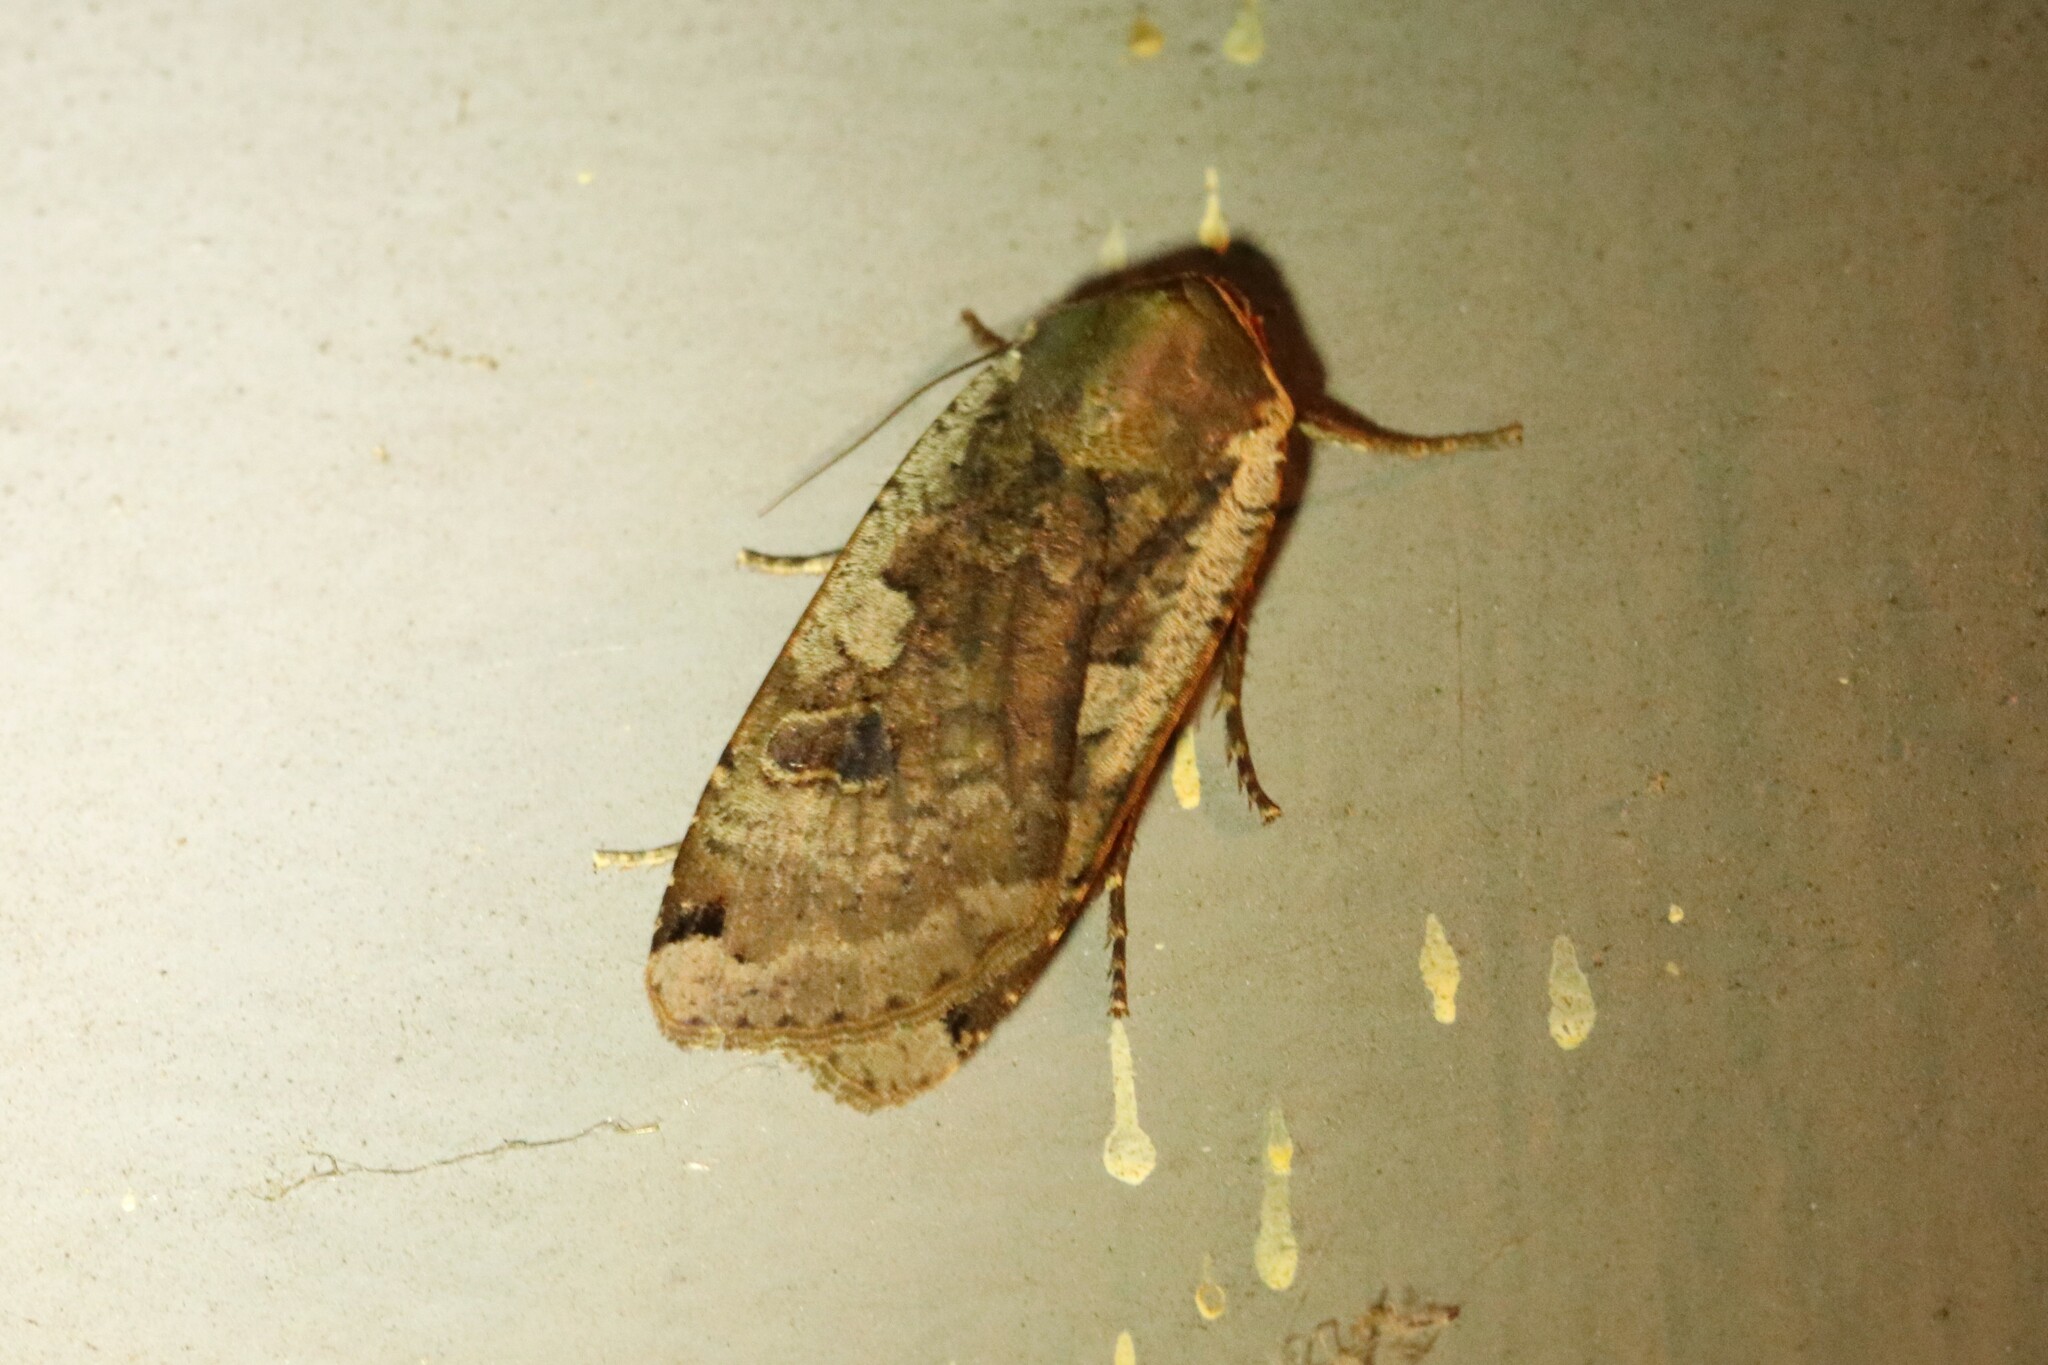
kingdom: Animalia
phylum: Arthropoda
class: Insecta
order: Lepidoptera
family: Noctuidae
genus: Noctua
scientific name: Noctua pronuba
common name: Large yellow underwing
